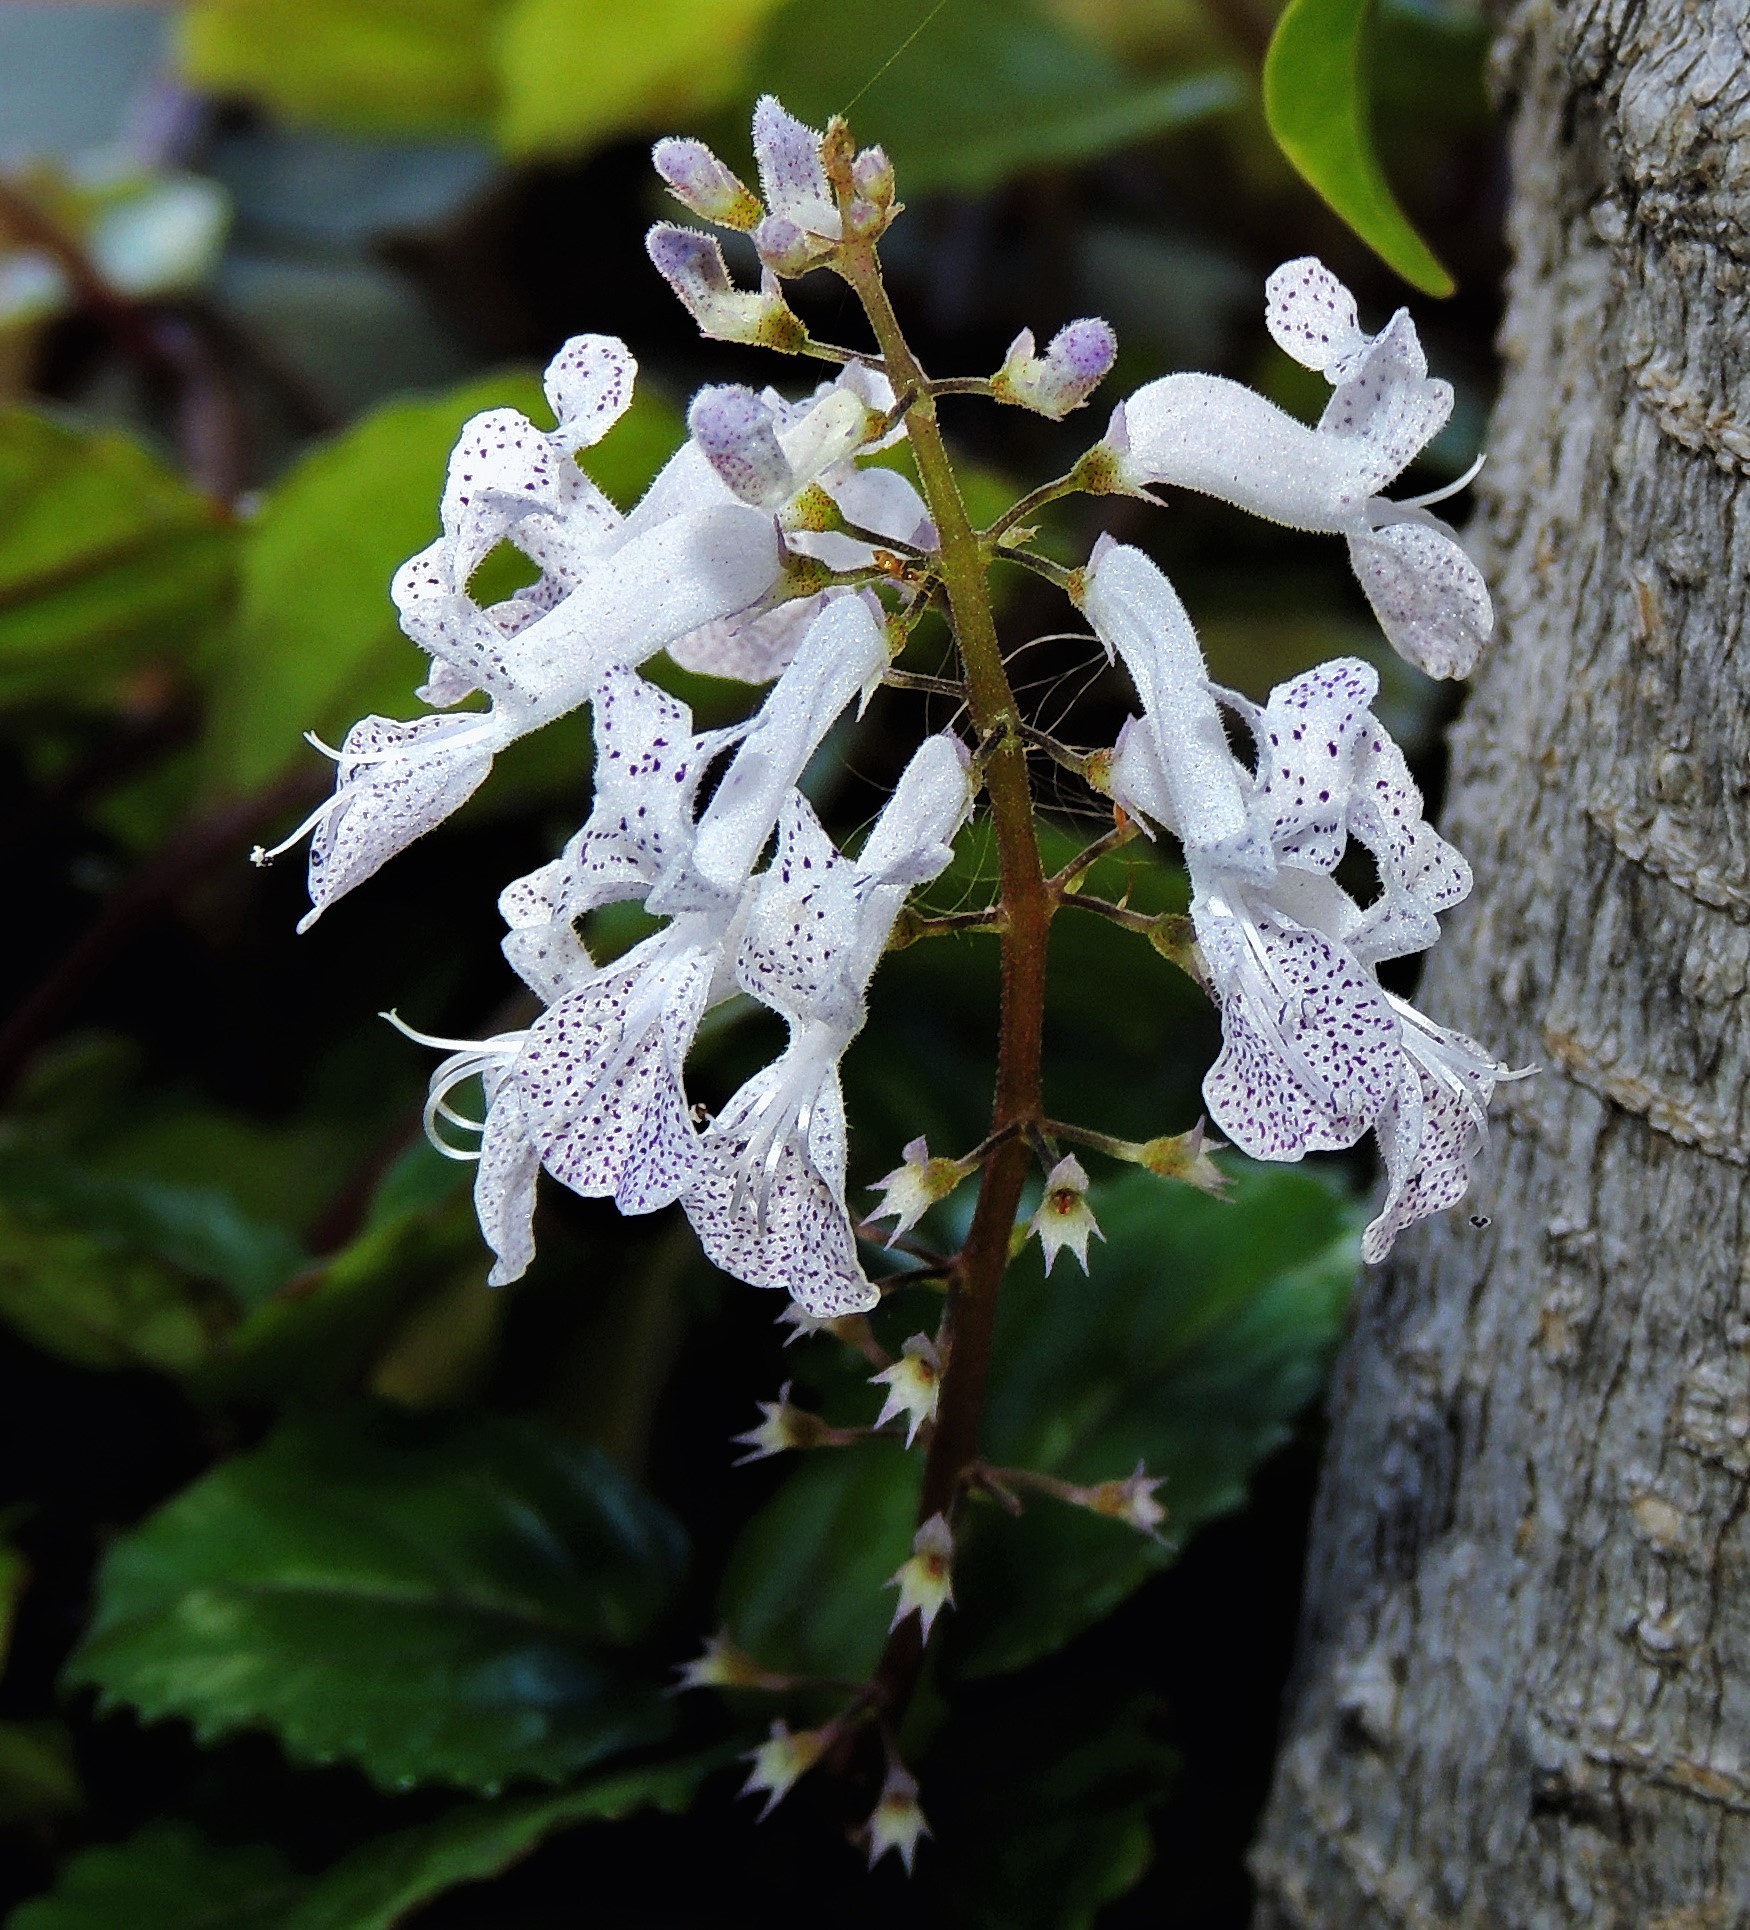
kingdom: Plantae
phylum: Tracheophyta
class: Magnoliopsida
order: Lamiales
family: Lamiaceae
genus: Plectranthus
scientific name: Plectranthus verticillatus
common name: Whorled plectranthus
